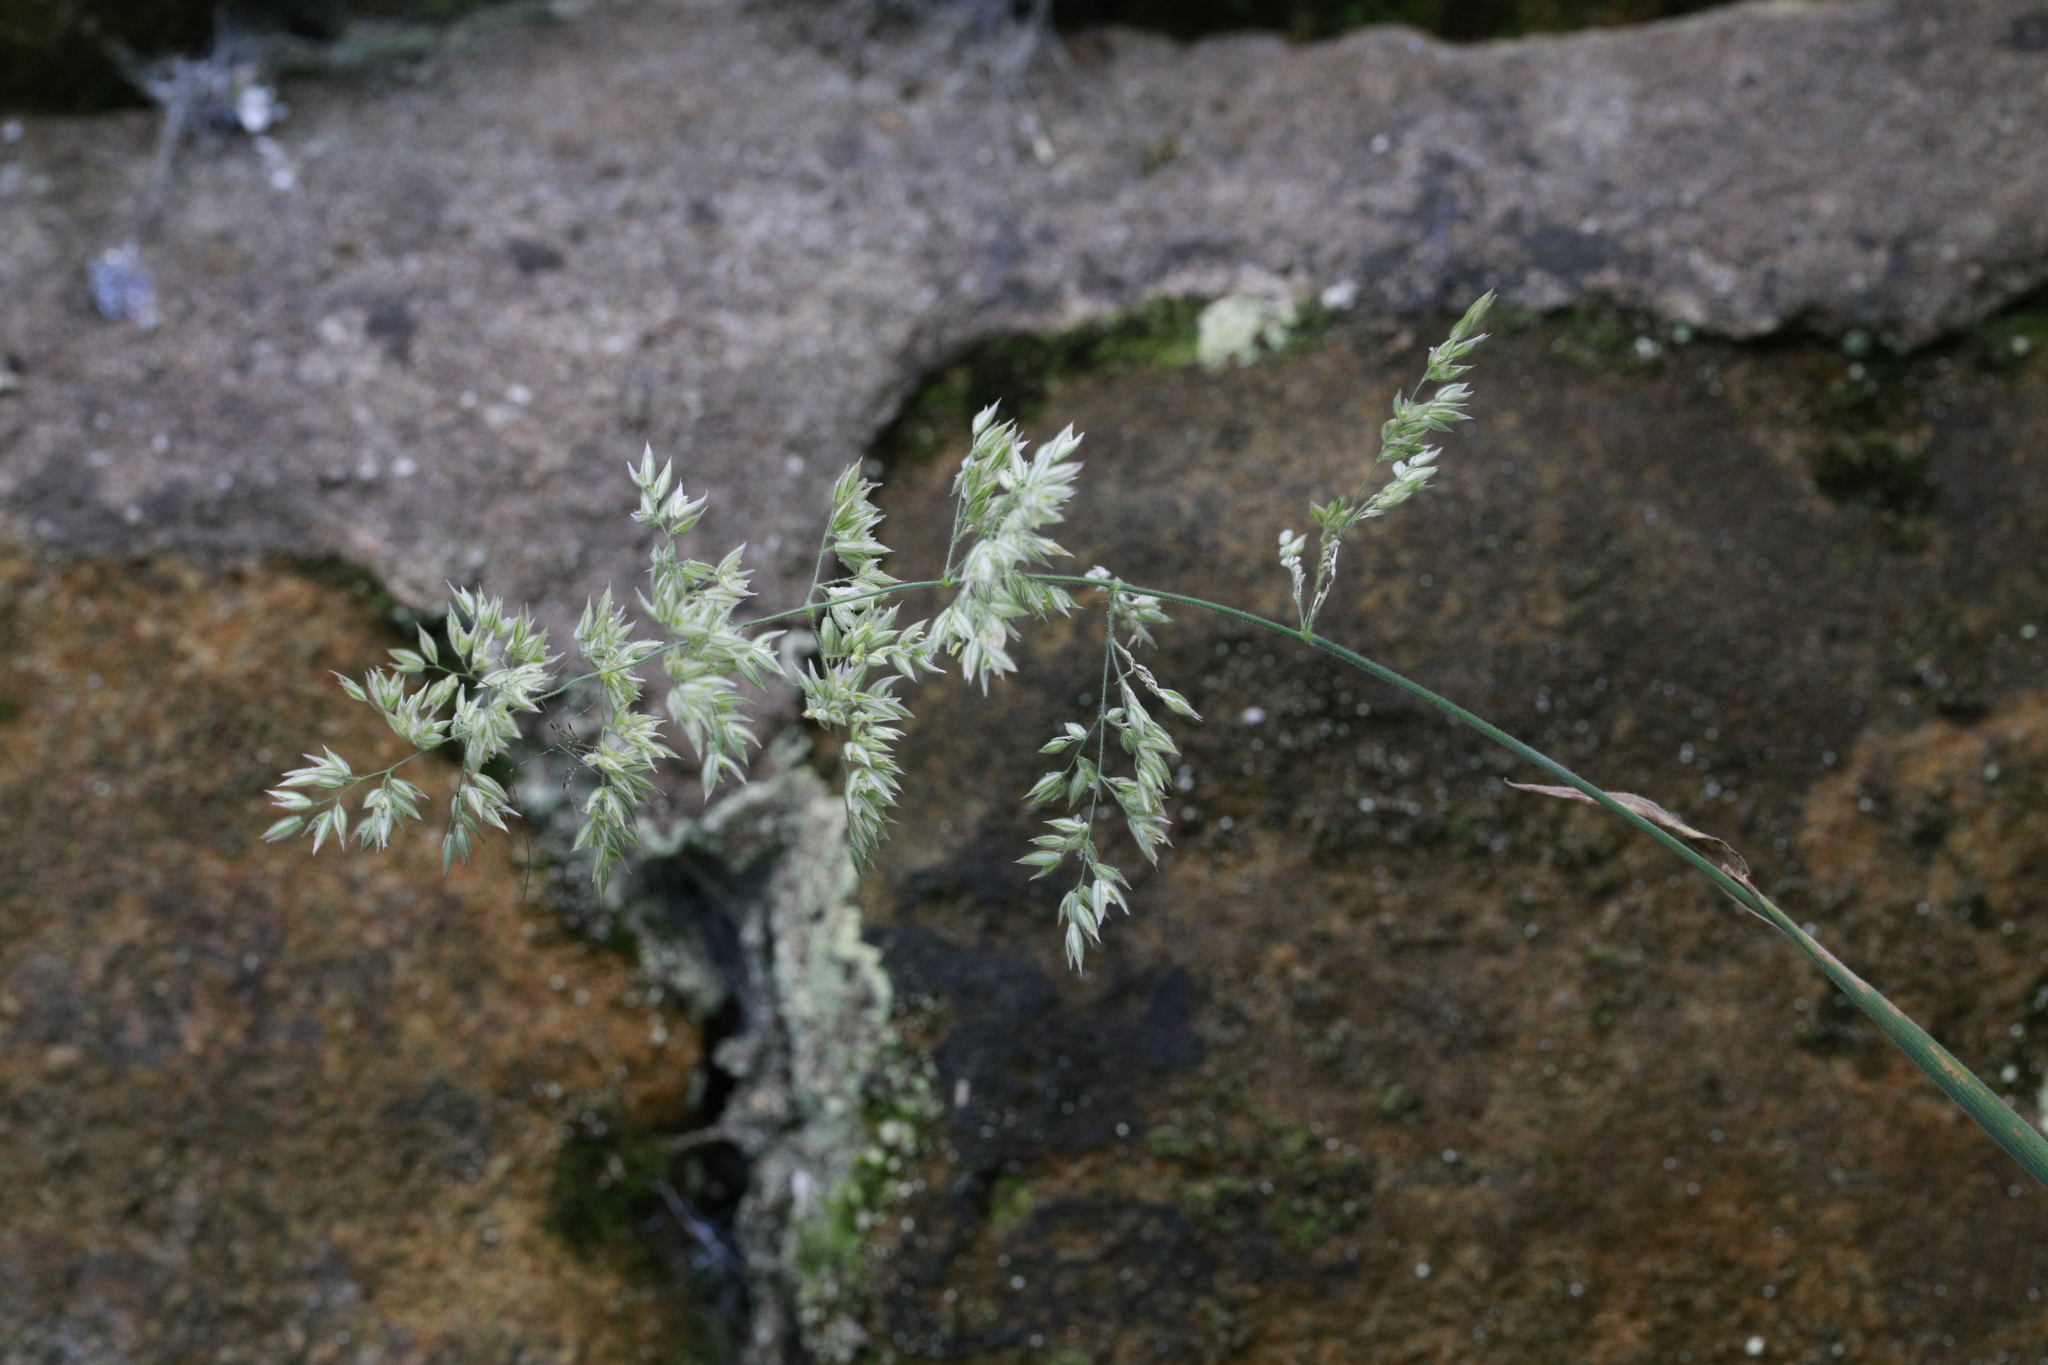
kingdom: Plantae
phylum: Tracheophyta
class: Liliopsida
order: Poales
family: Poaceae
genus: Holcus
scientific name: Holcus lanatus
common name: Yorkshire-fog
